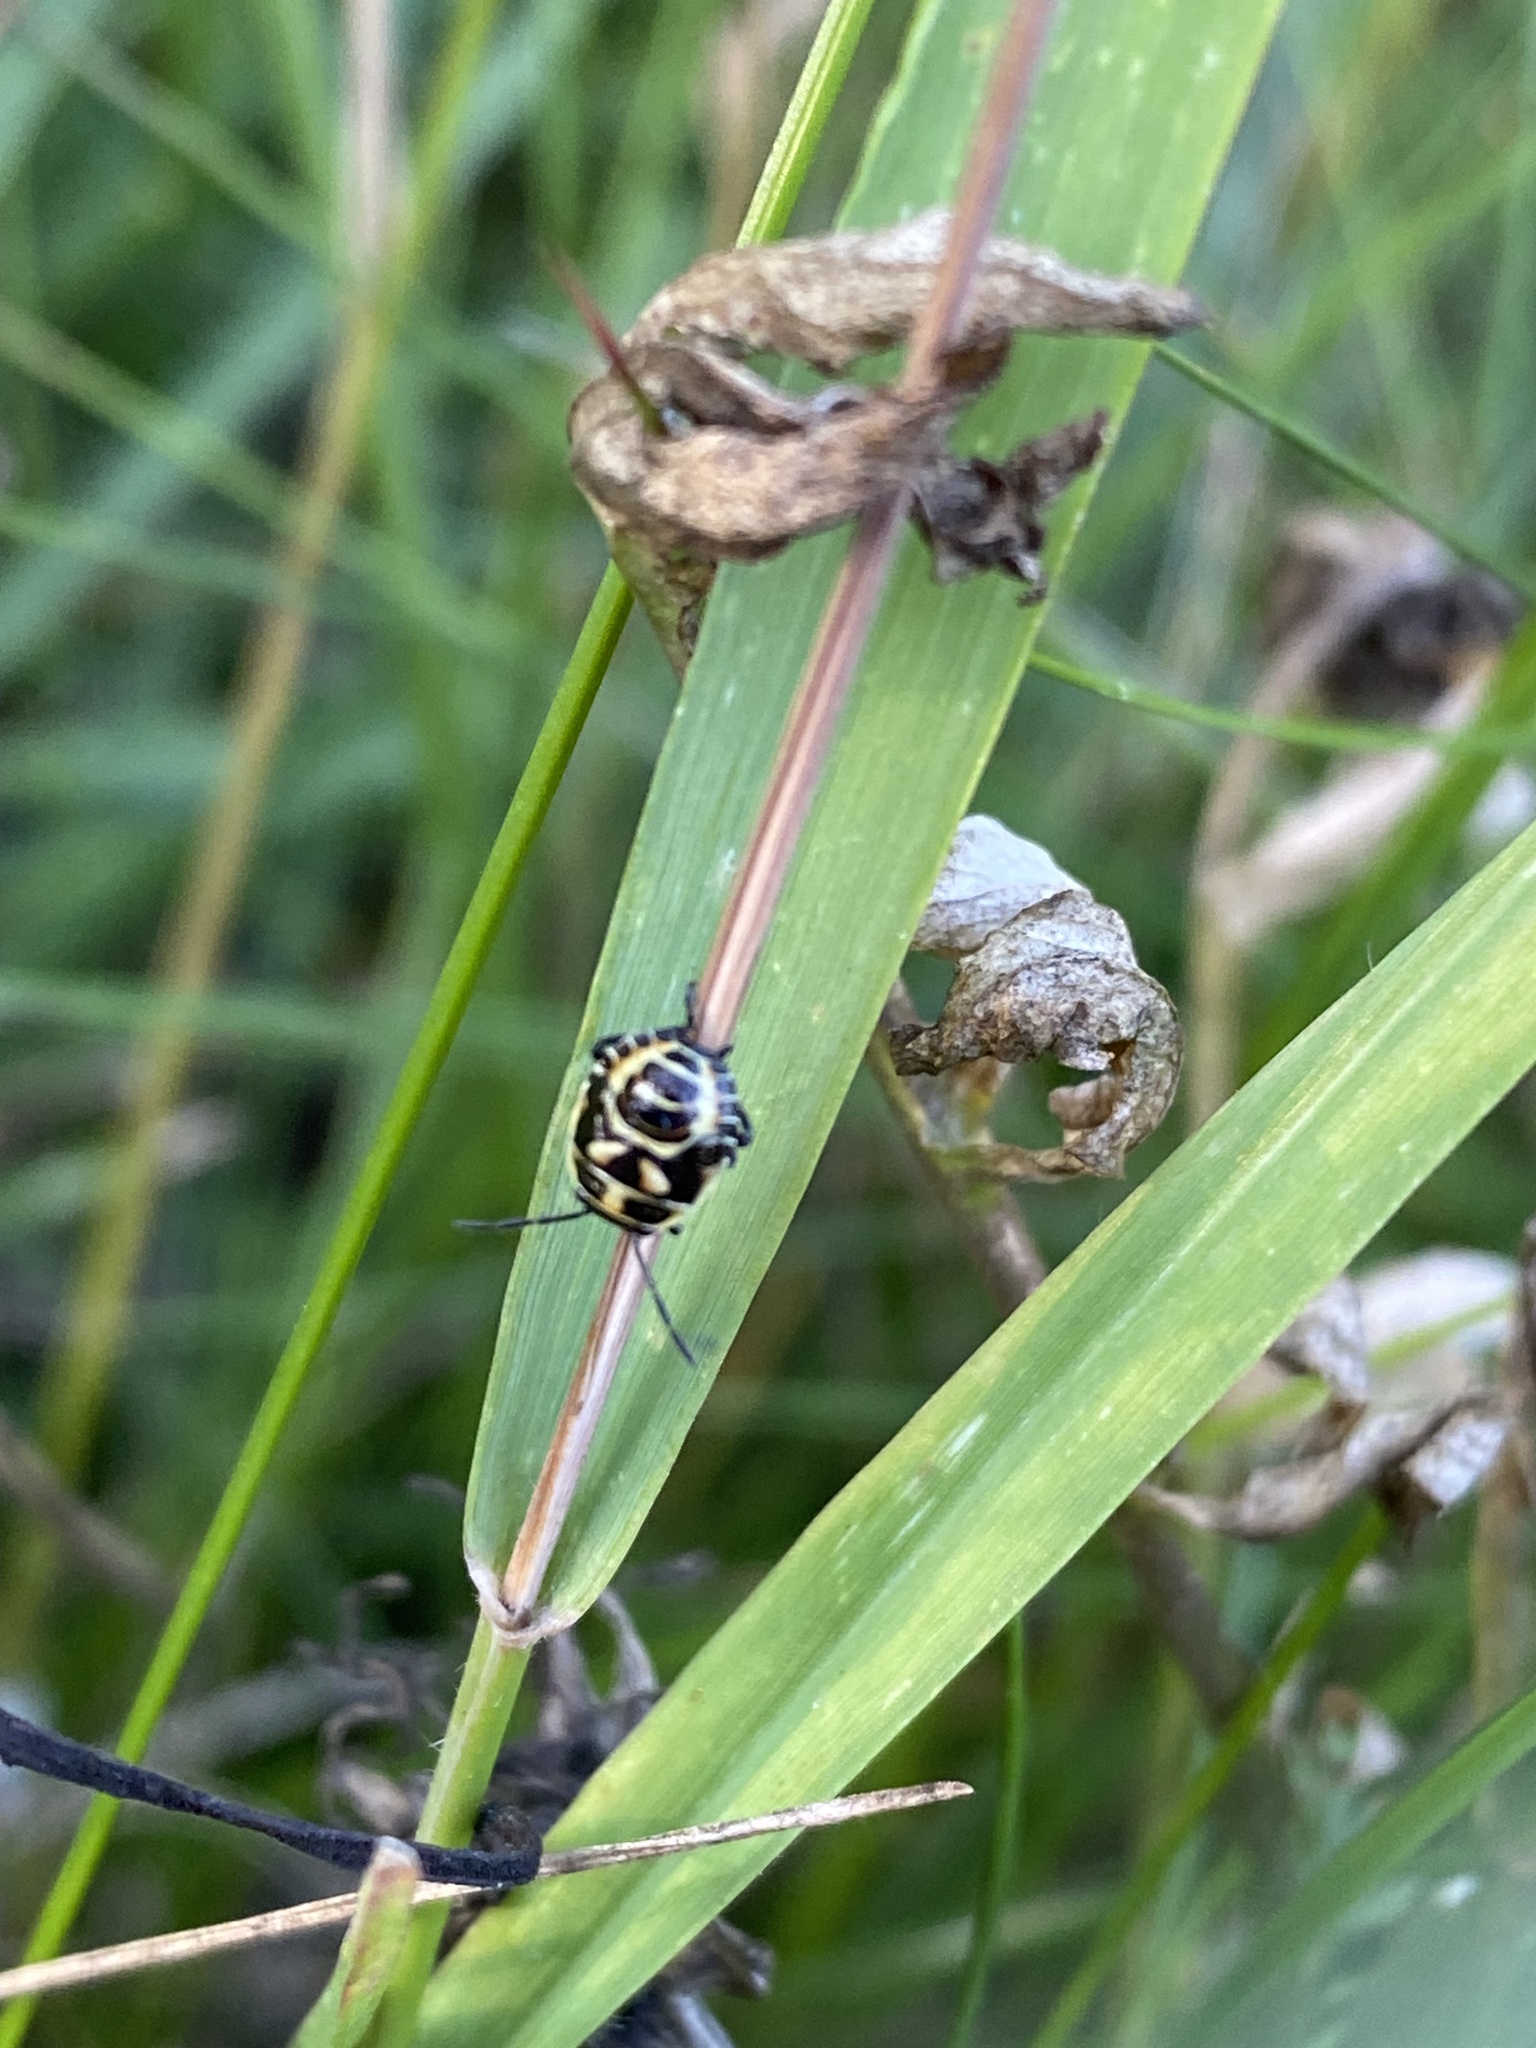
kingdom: Animalia
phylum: Arthropoda
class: Insecta
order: Hemiptera
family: Pentatomidae
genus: Eurydema
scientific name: Eurydema oleracea
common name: Cabbage bug
